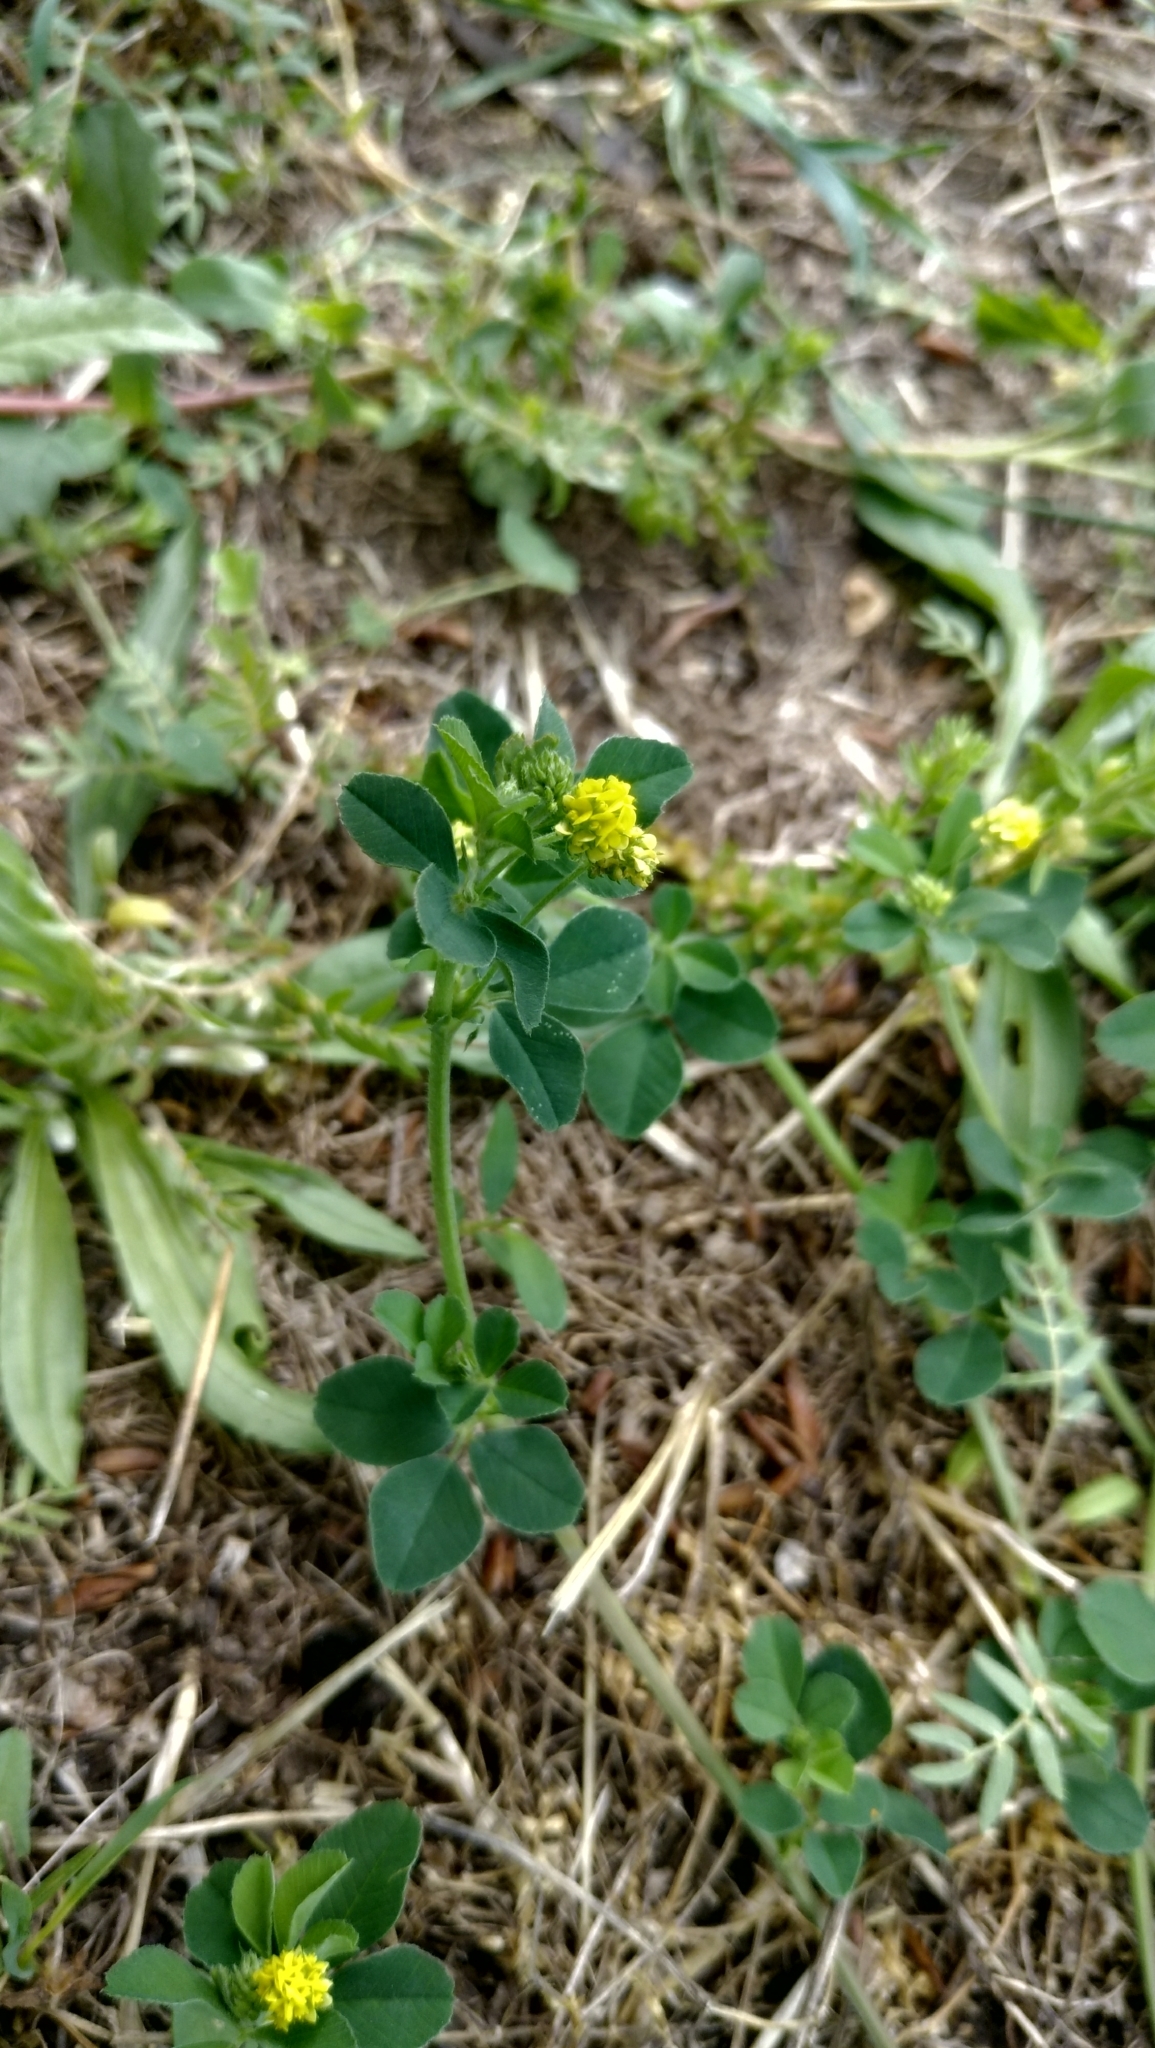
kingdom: Plantae
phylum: Tracheophyta
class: Magnoliopsida
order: Fabales
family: Fabaceae
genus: Medicago
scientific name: Medicago lupulina
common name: Black medick
